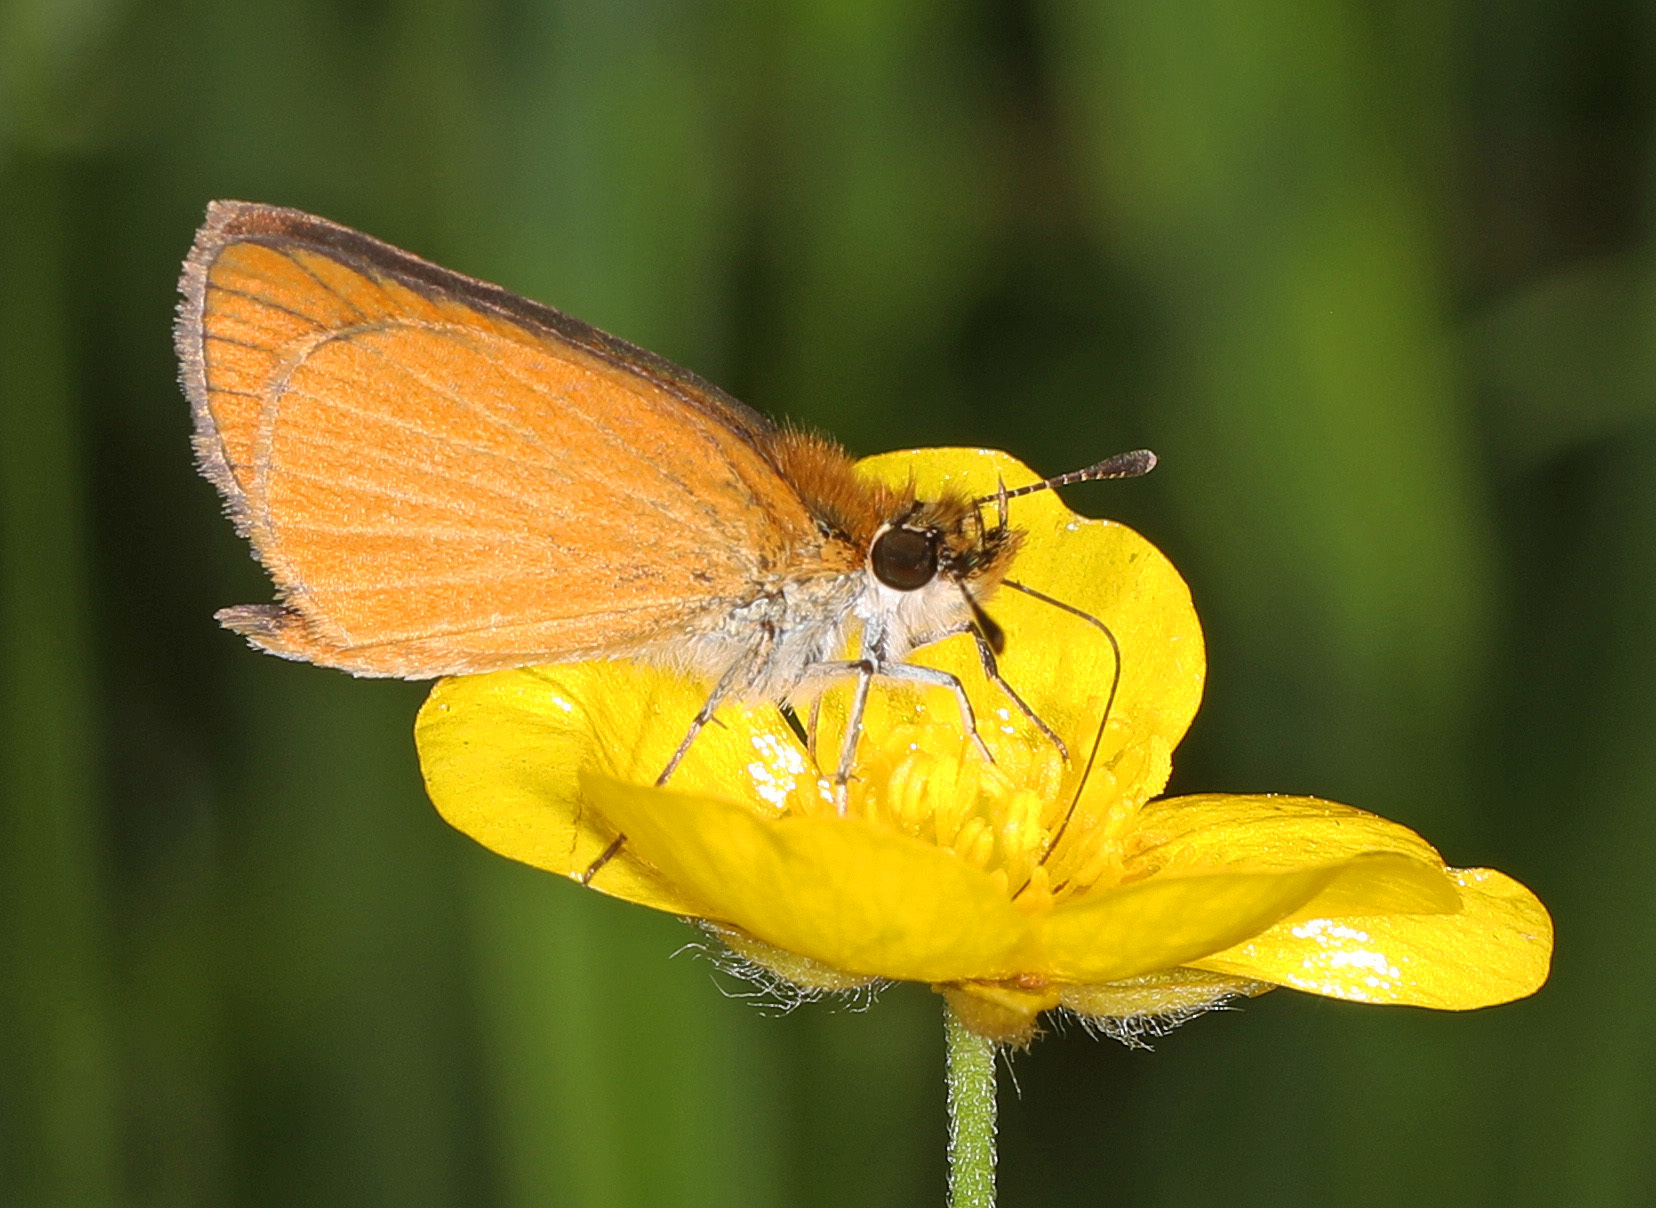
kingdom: Animalia
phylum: Arthropoda
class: Insecta
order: Lepidoptera
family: Hesperiidae
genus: Ancyloxypha
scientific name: Ancyloxypha numitor
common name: Least skipper
